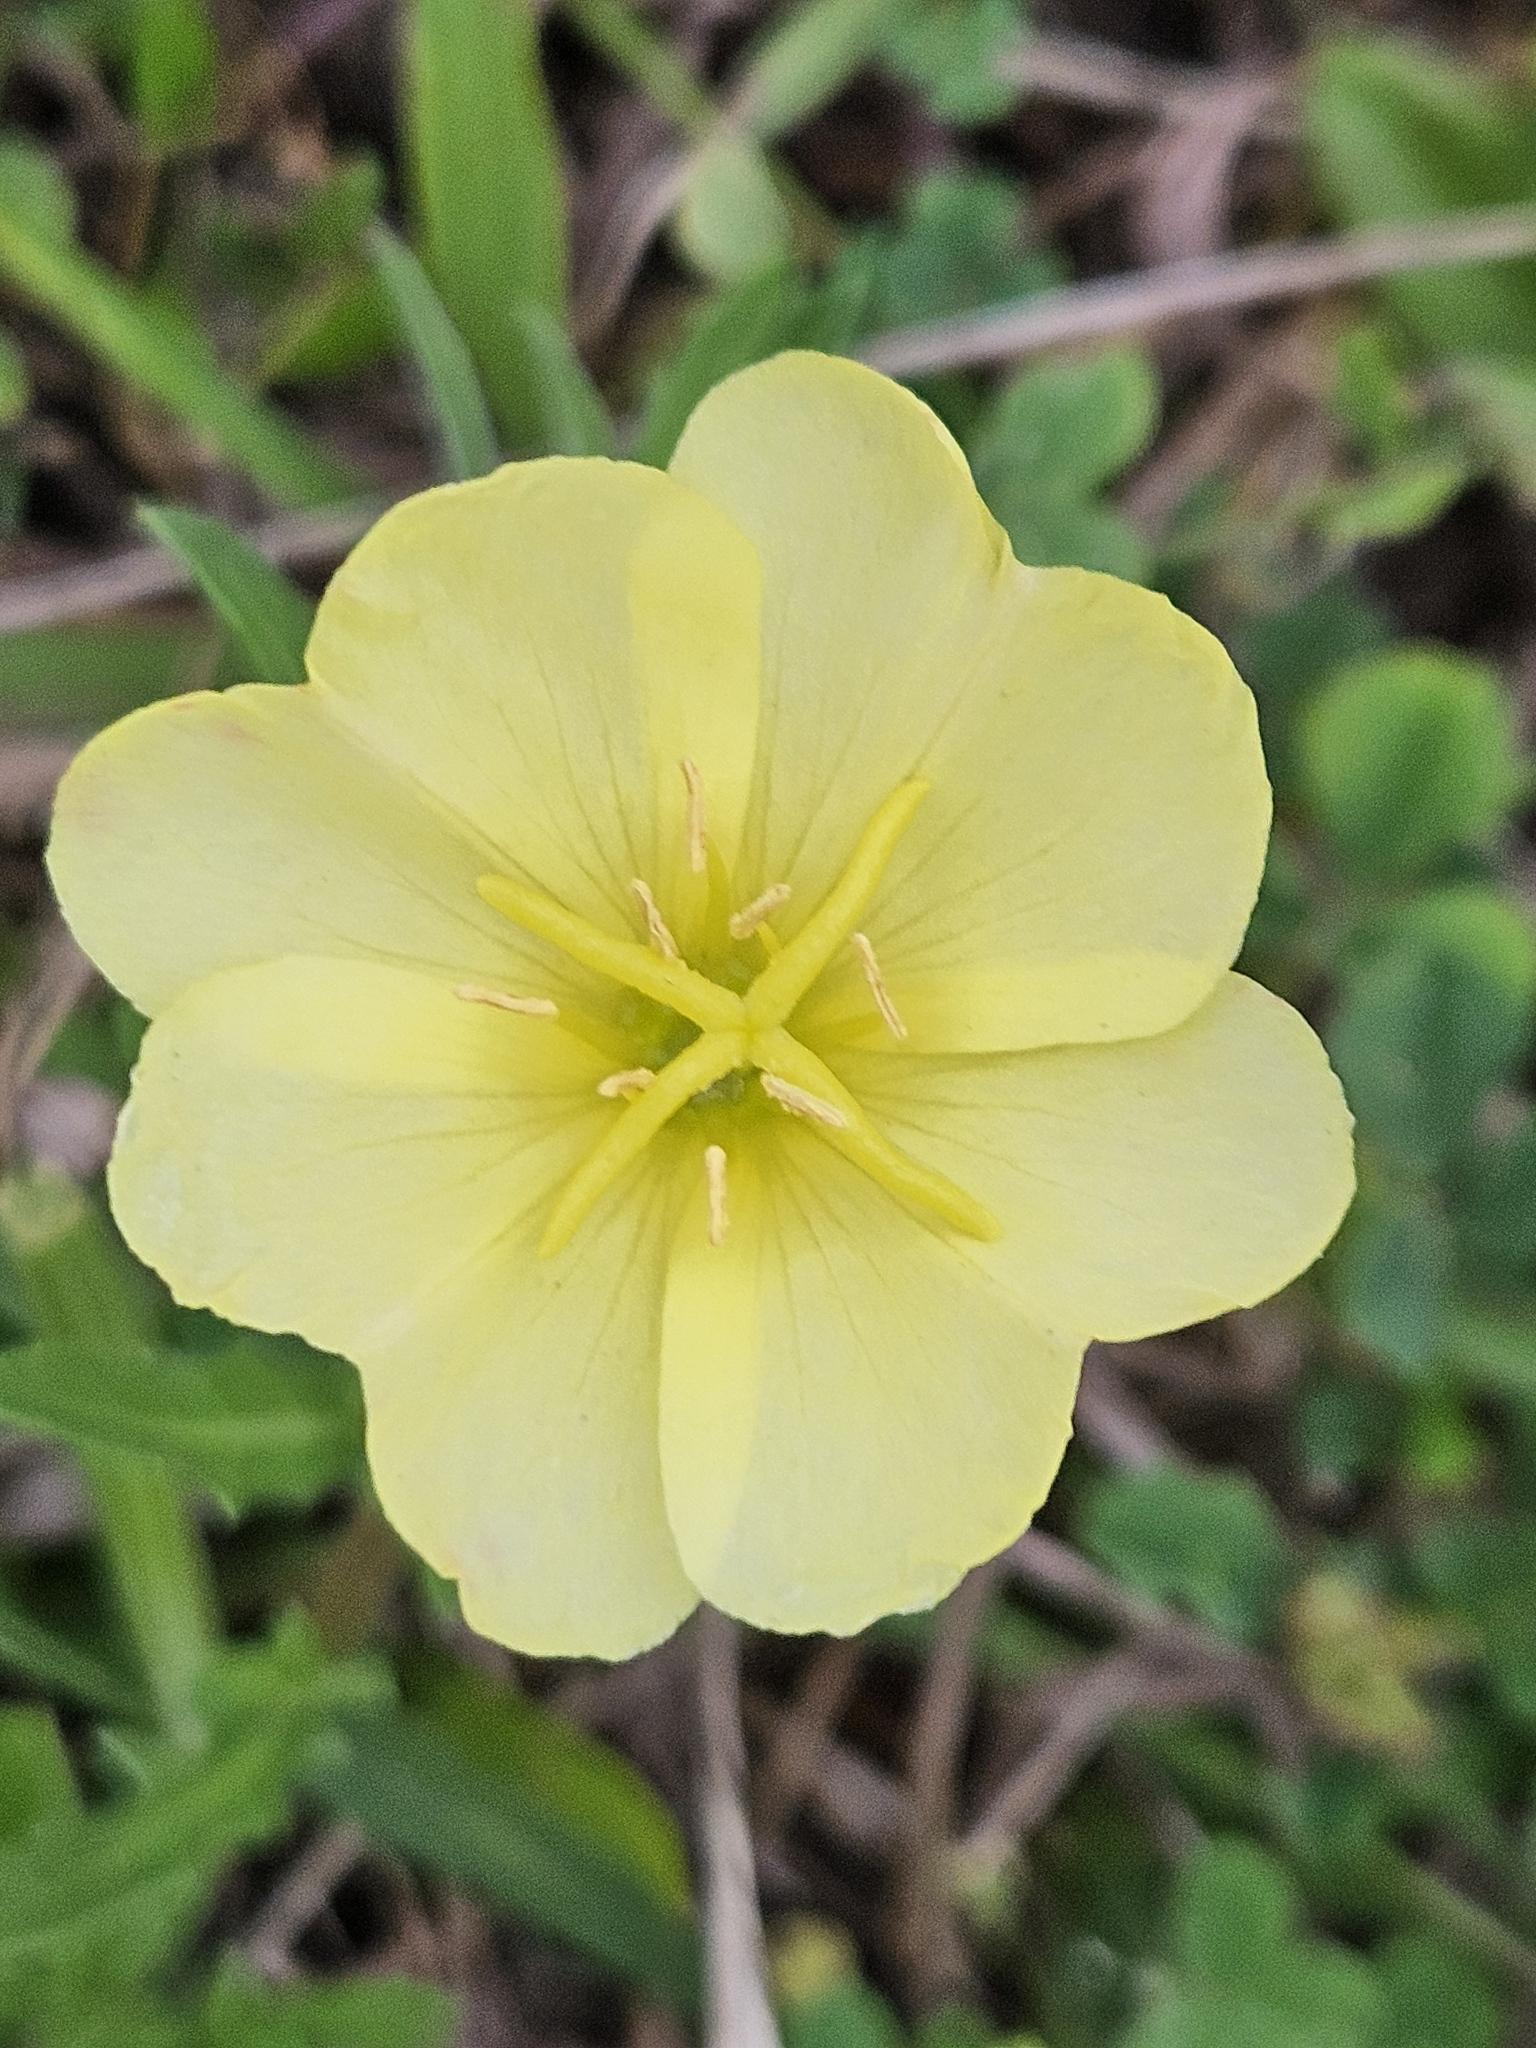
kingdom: Plantae
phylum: Tracheophyta
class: Magnoliopsida
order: Myrtales
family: Onagraceae
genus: Oenothera
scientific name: Oenothera laciniata
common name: Cut-leaved evening-primrose
